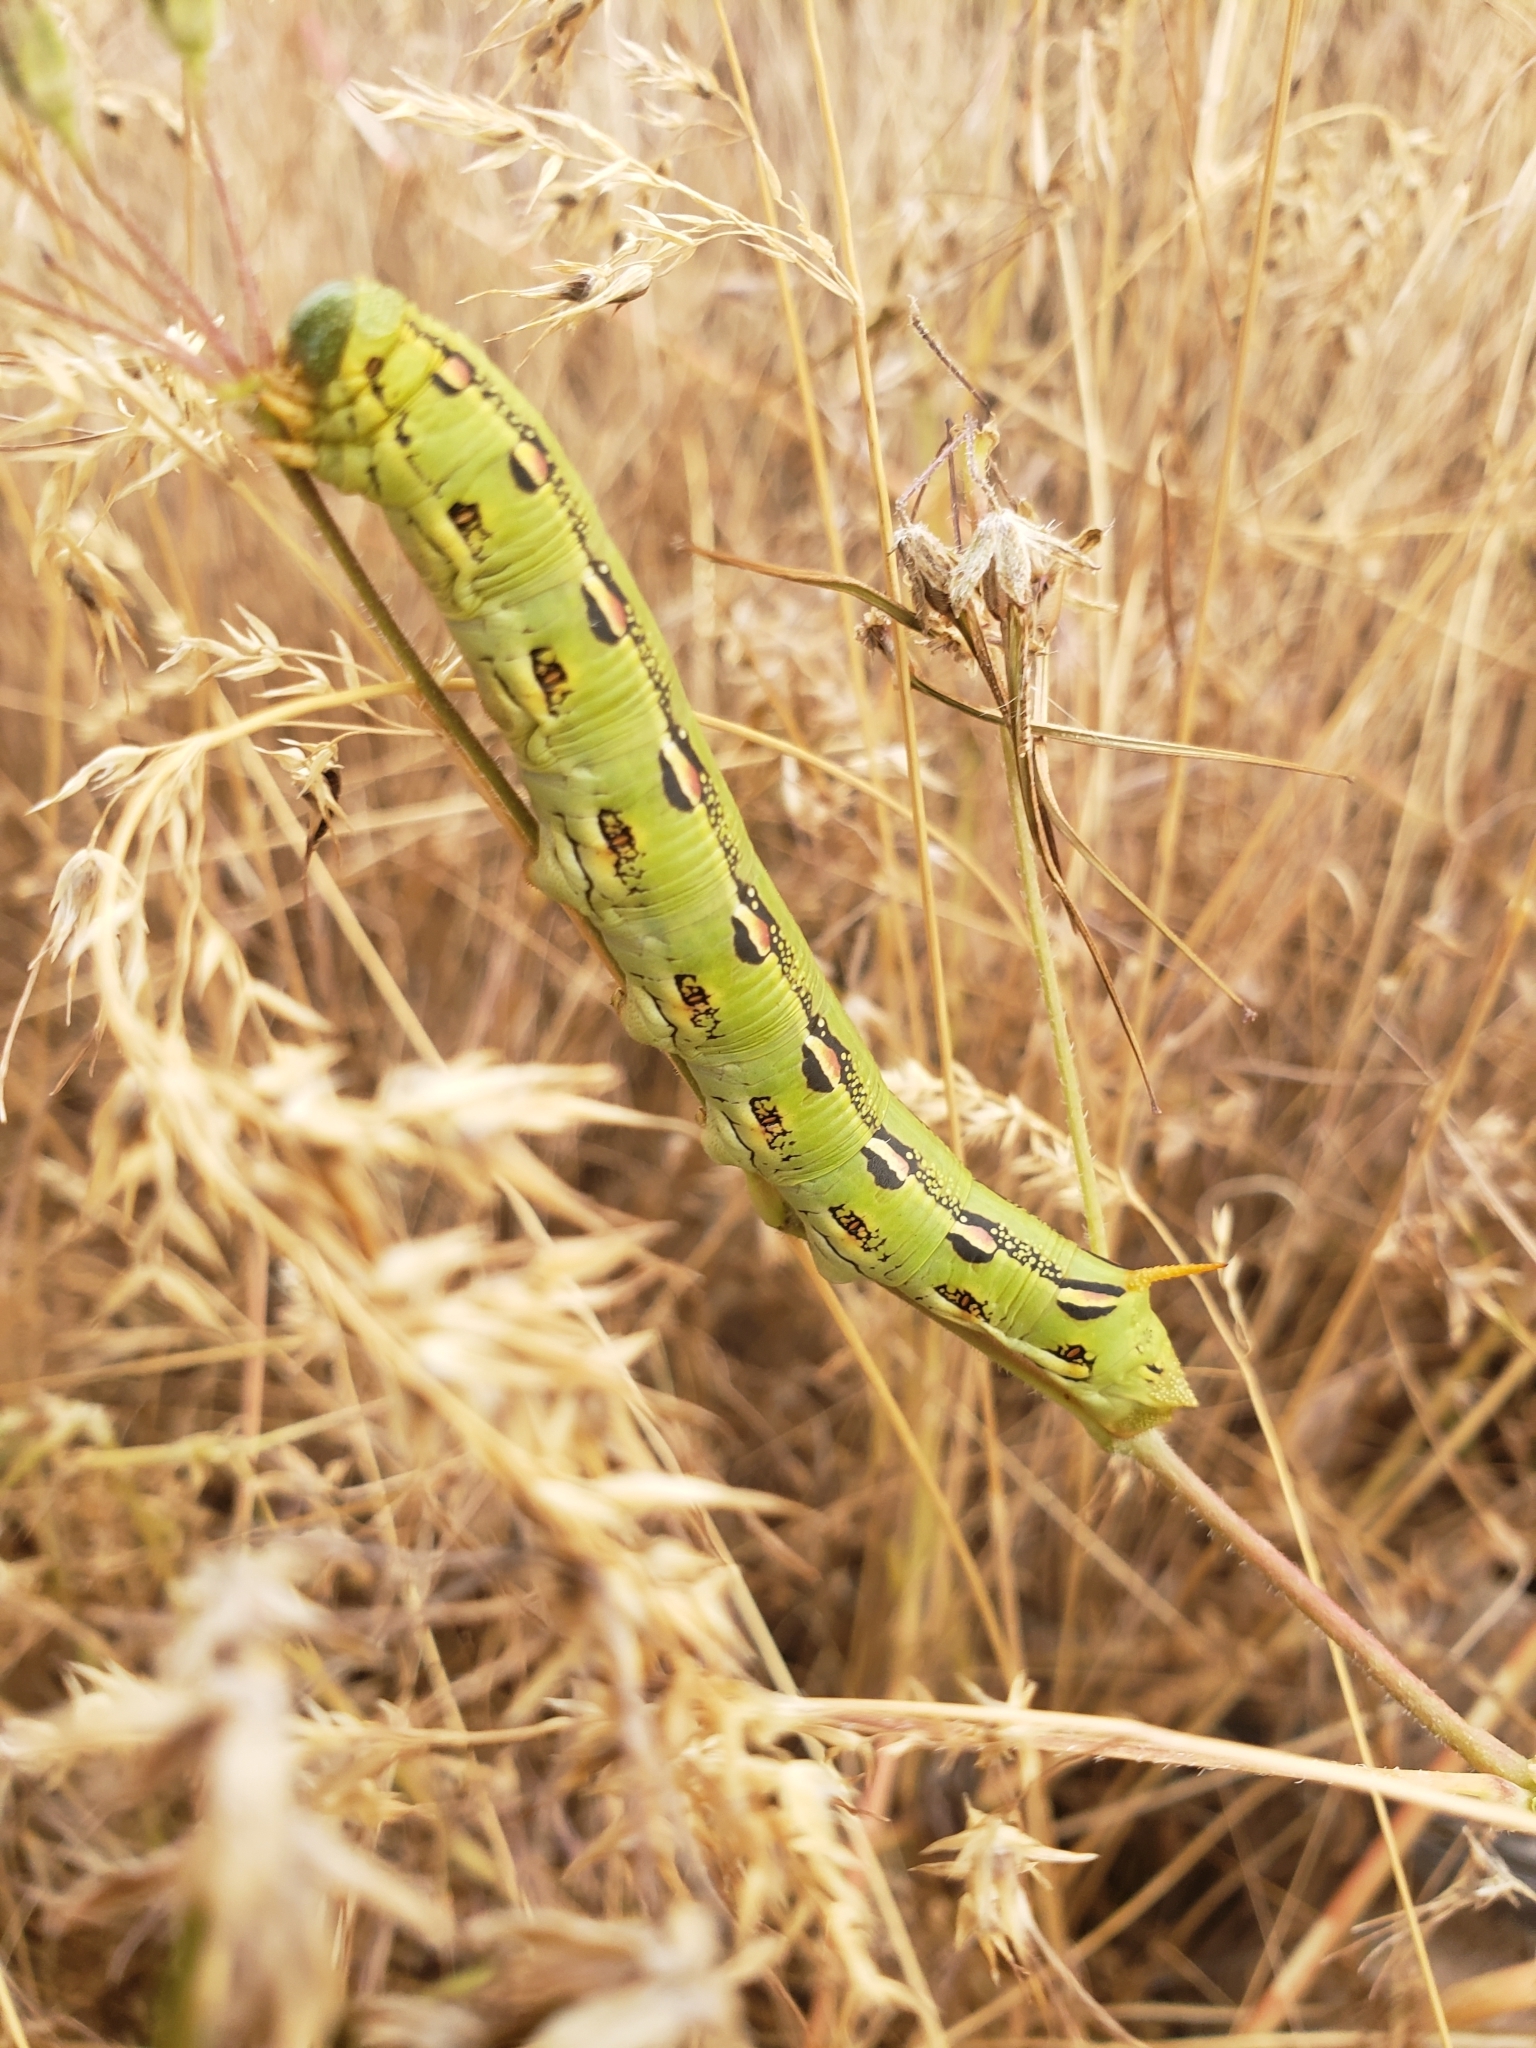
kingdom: Animalia
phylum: Arthropoda
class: Insecta
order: Lepidoptera
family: Sphingidae
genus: Hyles
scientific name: Hyles lineata
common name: White-lined sphinx
